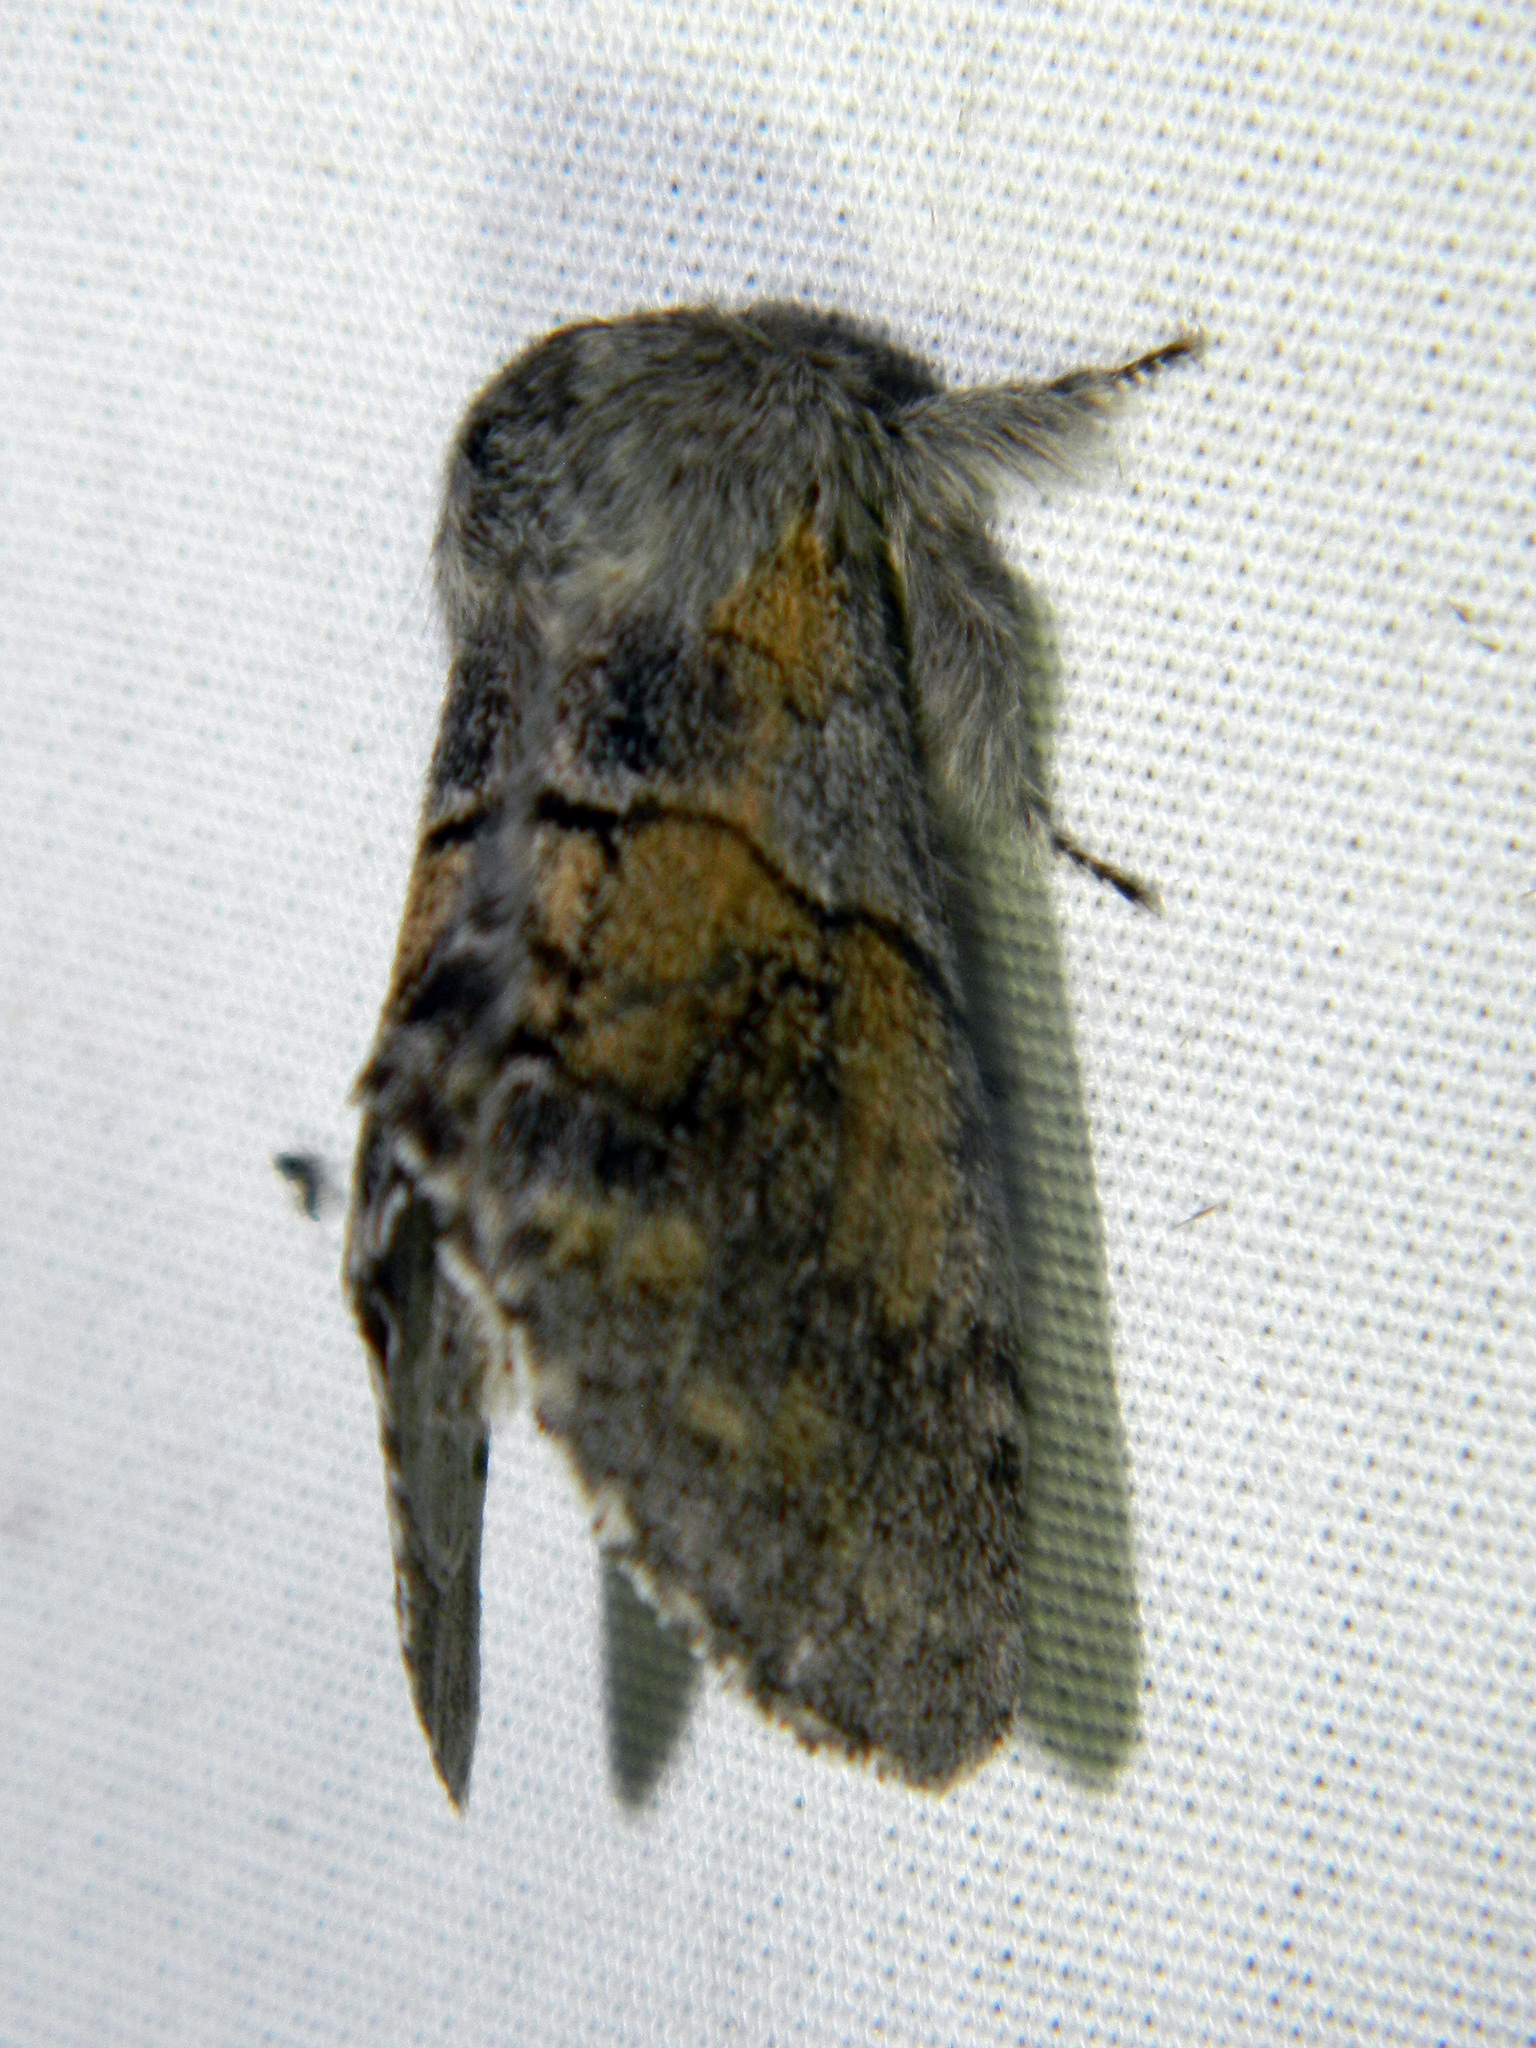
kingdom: Animalia
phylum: Arthropoda
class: Insecta
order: Lepidoptera
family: Notodontidae
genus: Gluphisia
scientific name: Gluphisia lintneri
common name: Lintner's gluphisia moth
